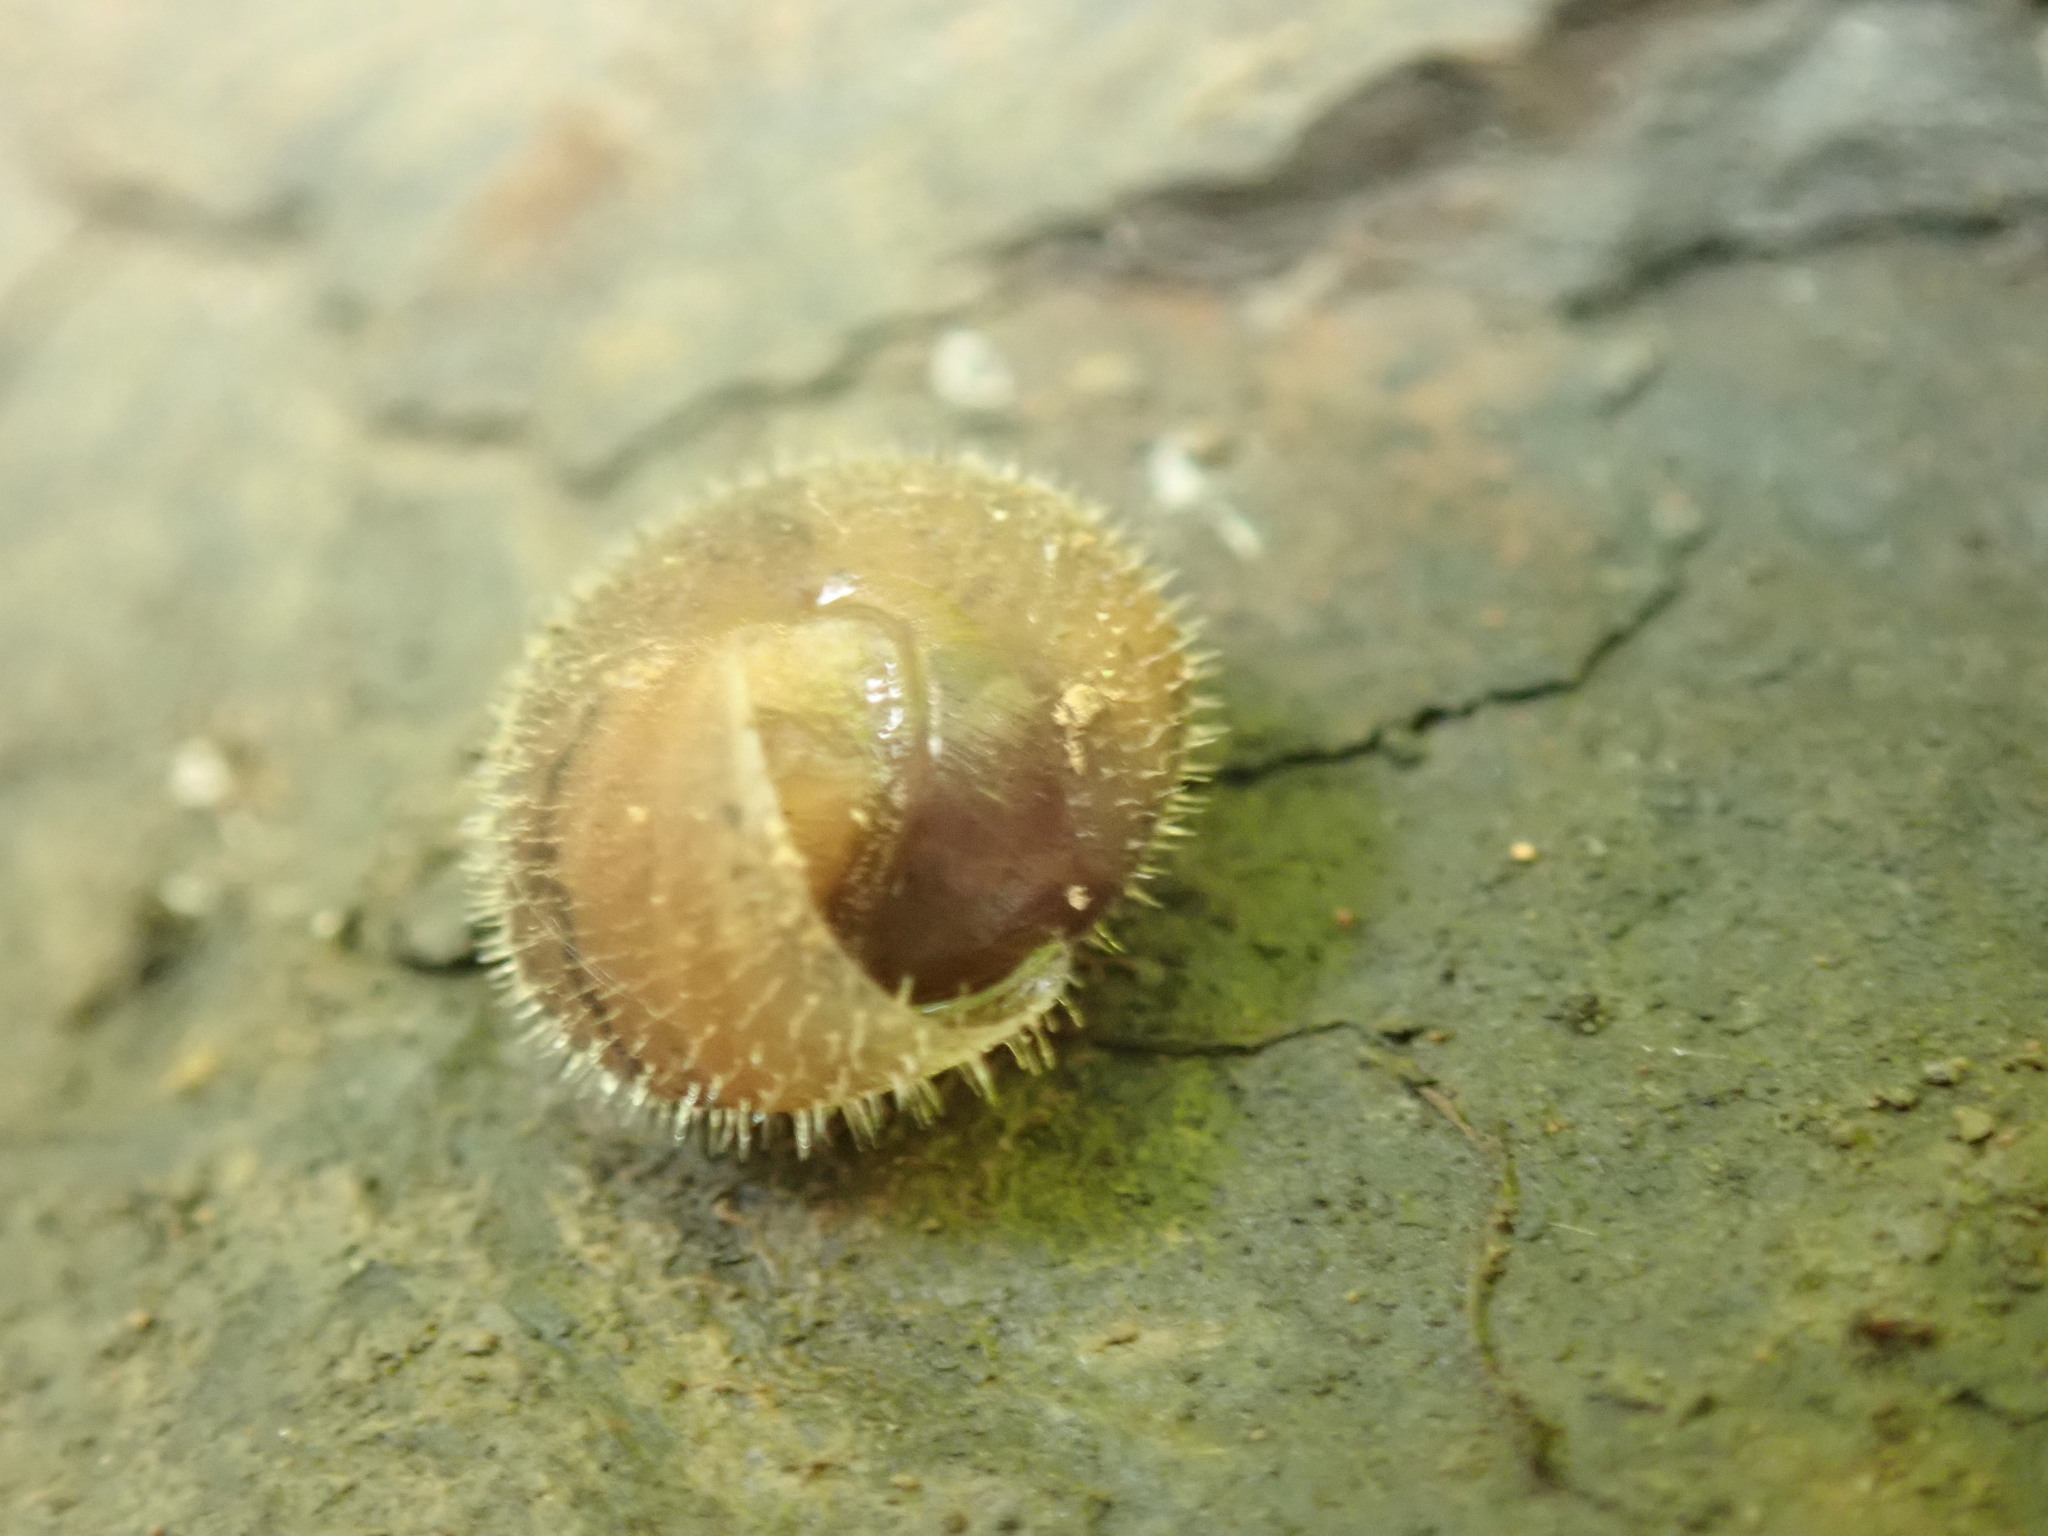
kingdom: Animalia
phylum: Mollusca
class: Gastropoda
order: Stylommatophora
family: Polygyridae
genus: Vespericola
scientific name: Vespericola columbianus
